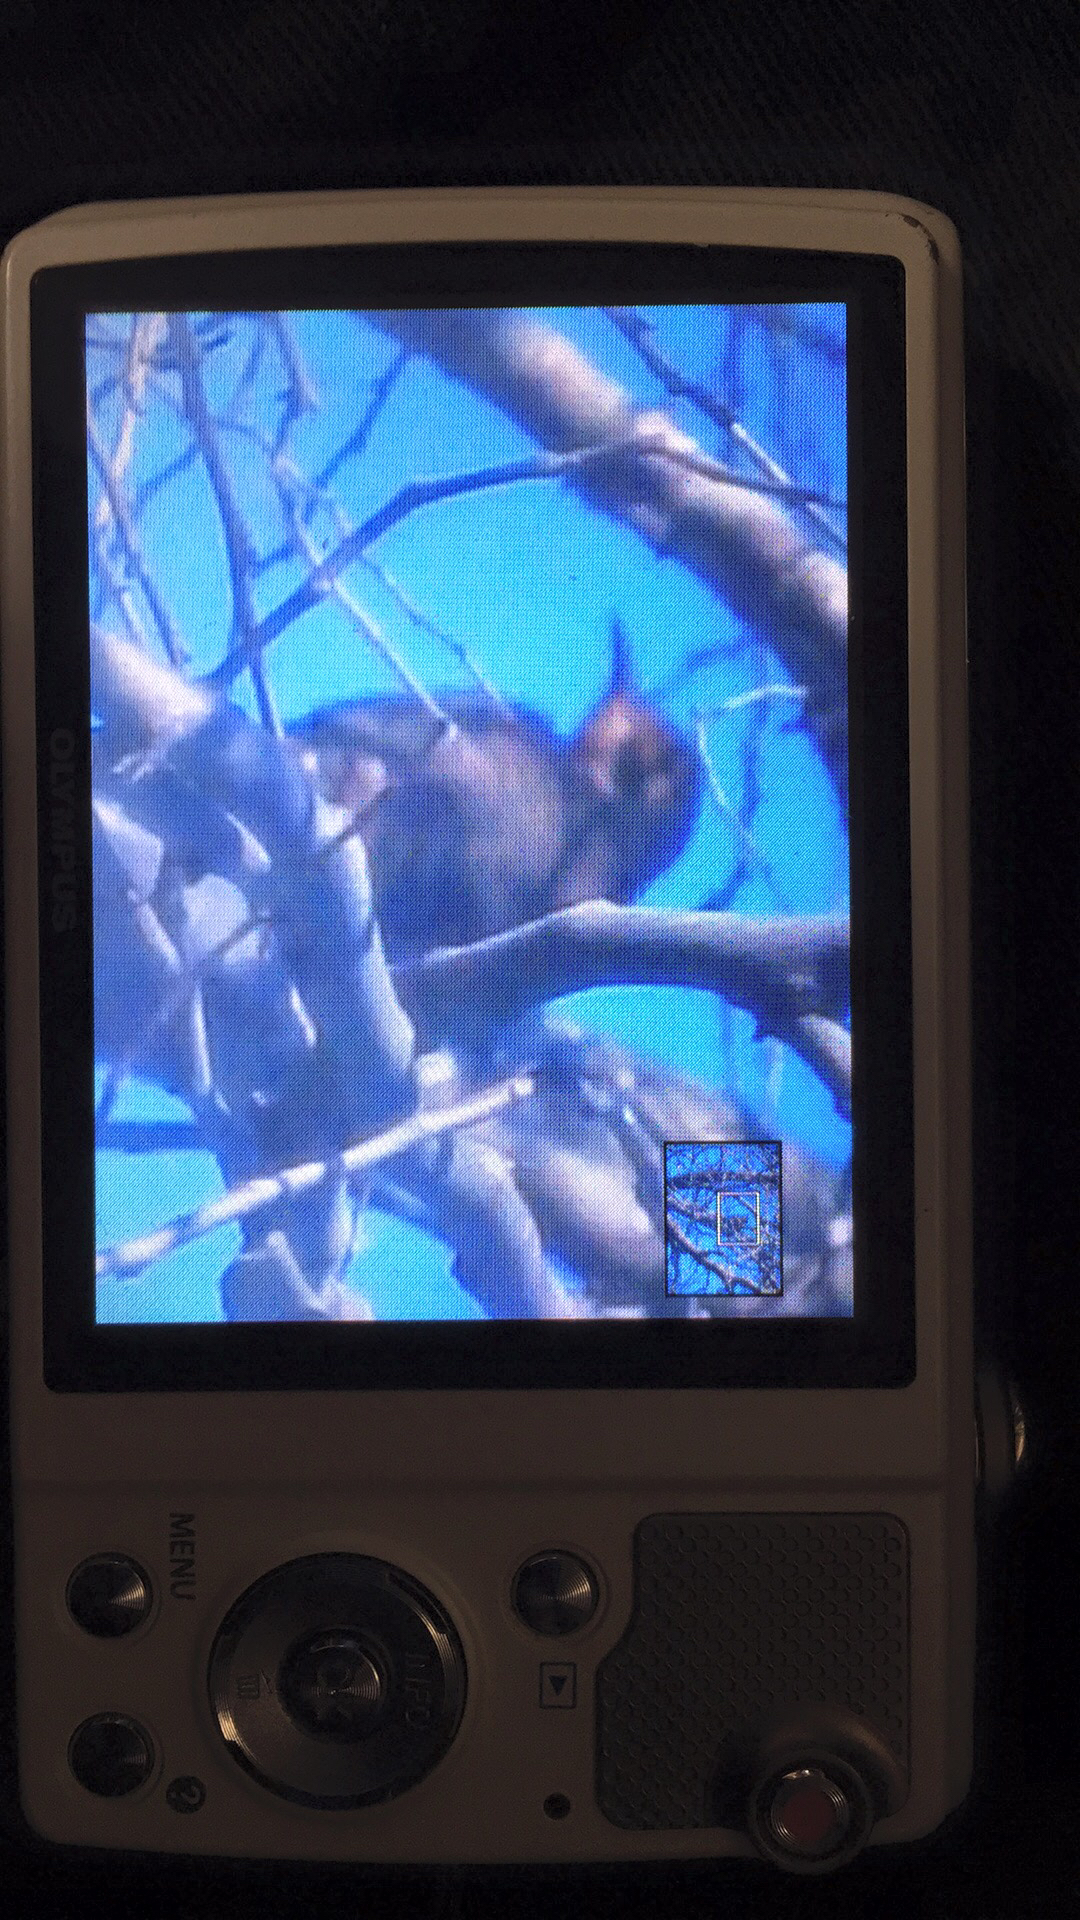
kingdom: Animalia
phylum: Chordata
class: Aves
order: Piciformes
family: Picidae
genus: Colaptes
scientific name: Colaptes auratus
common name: Northern flicker
